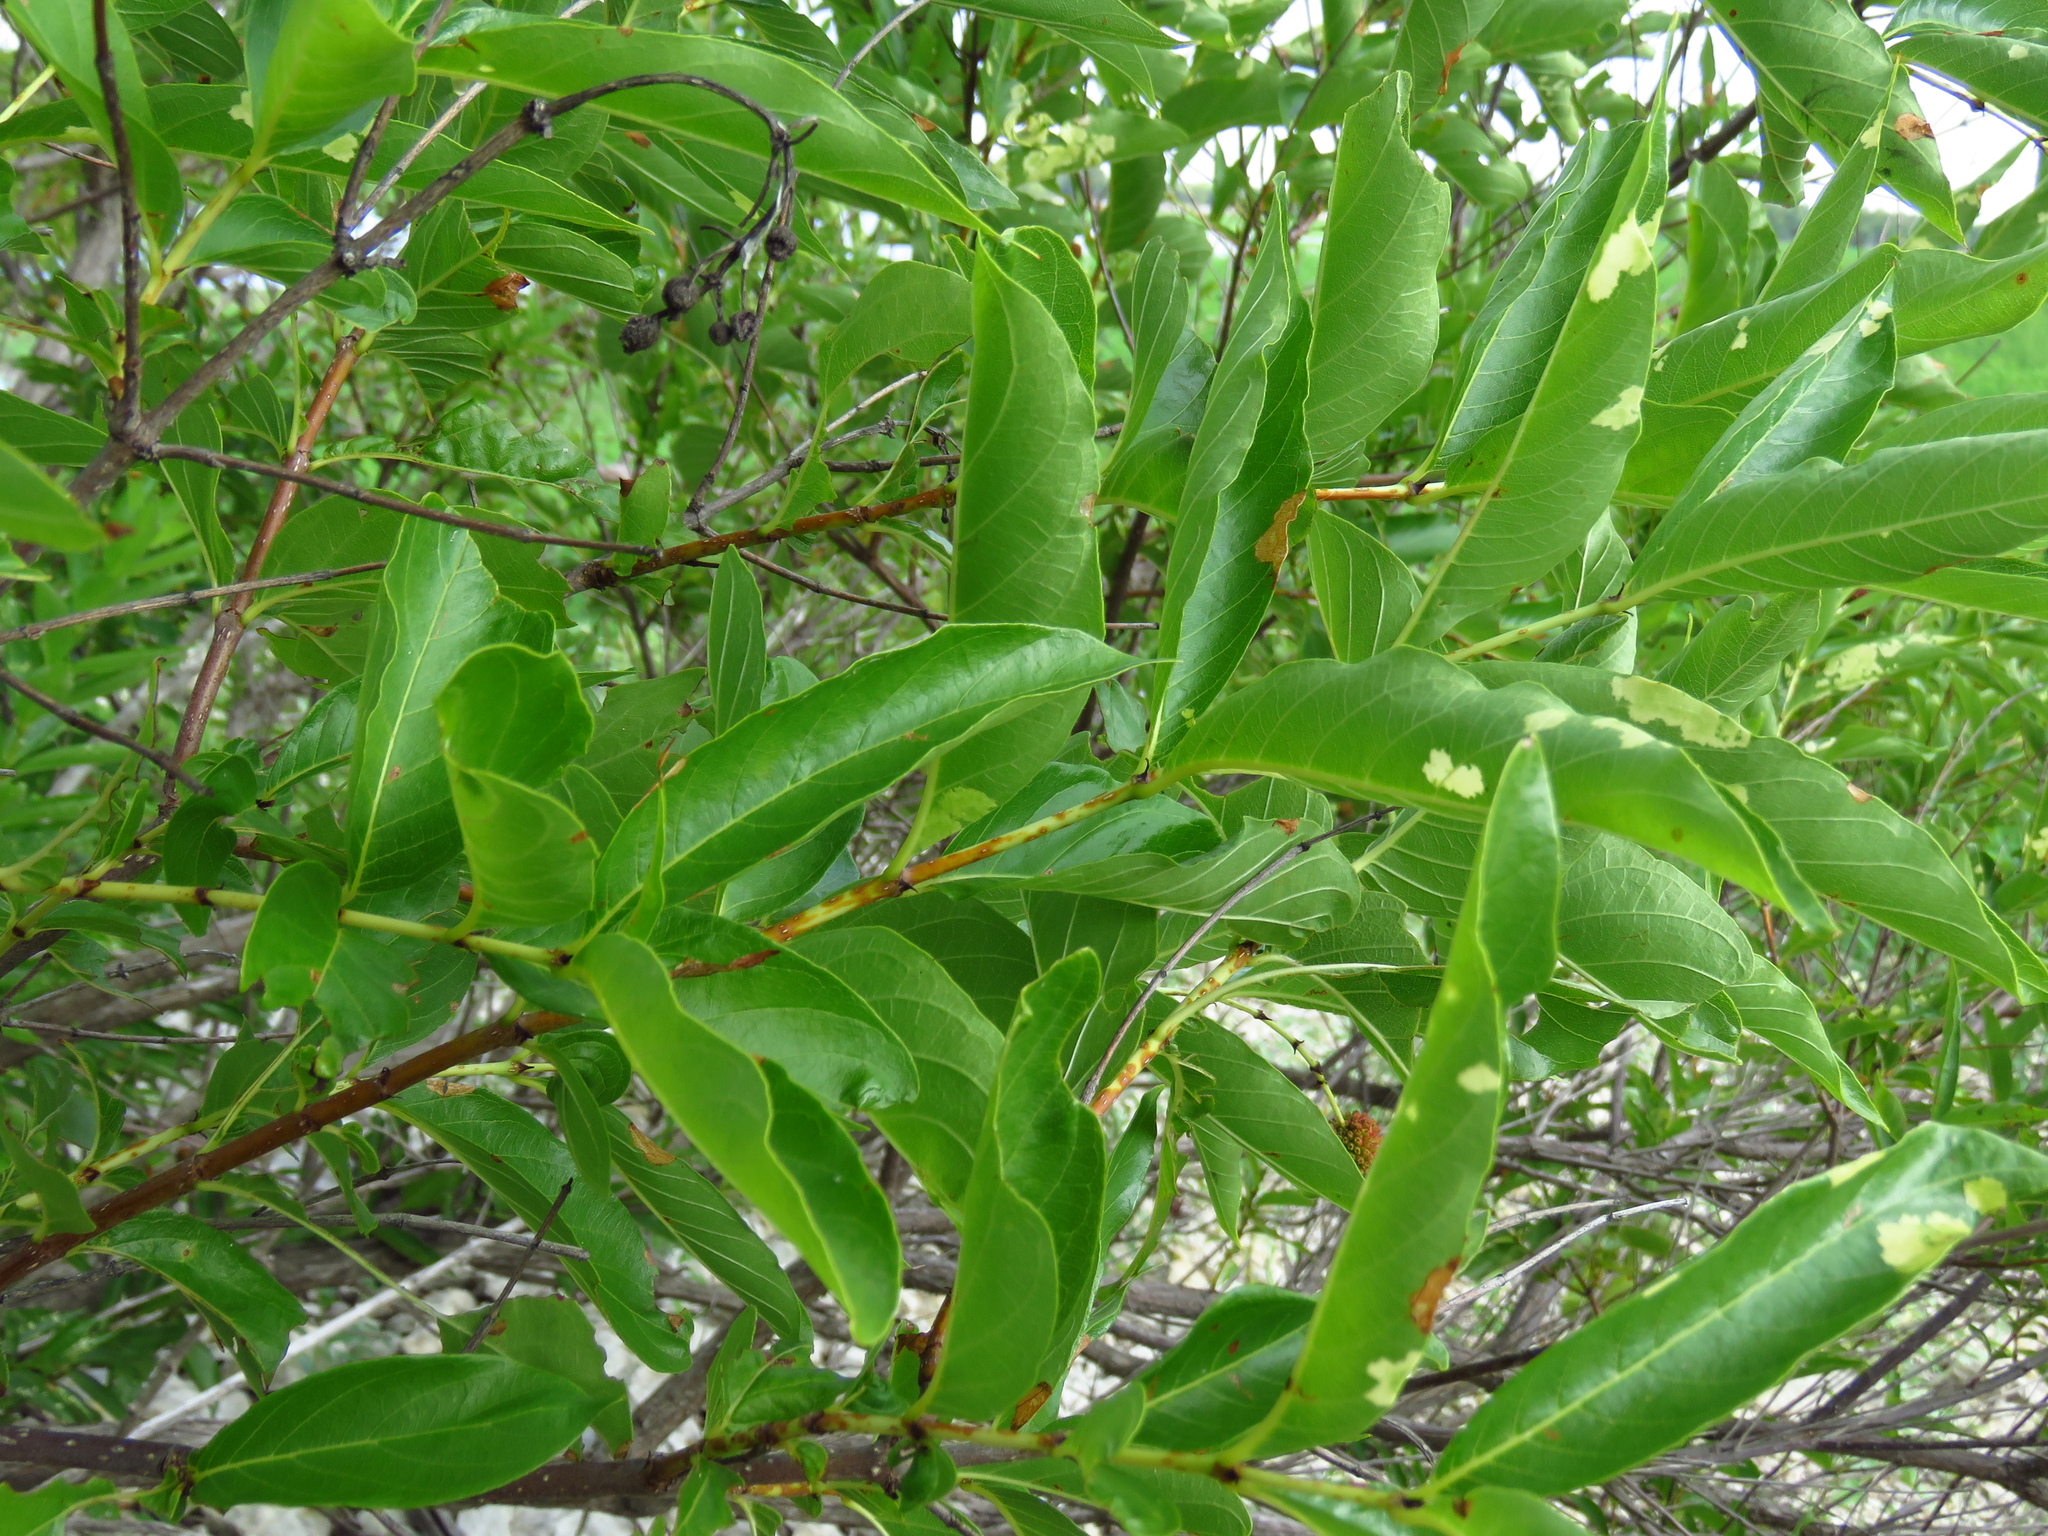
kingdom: Plantae
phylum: Tracheophyta
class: Magnoliopsida
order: Gentianales
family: Rubiaceae
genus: Cephalanthus
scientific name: Cephalanthus occidentalis
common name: Button-willow
